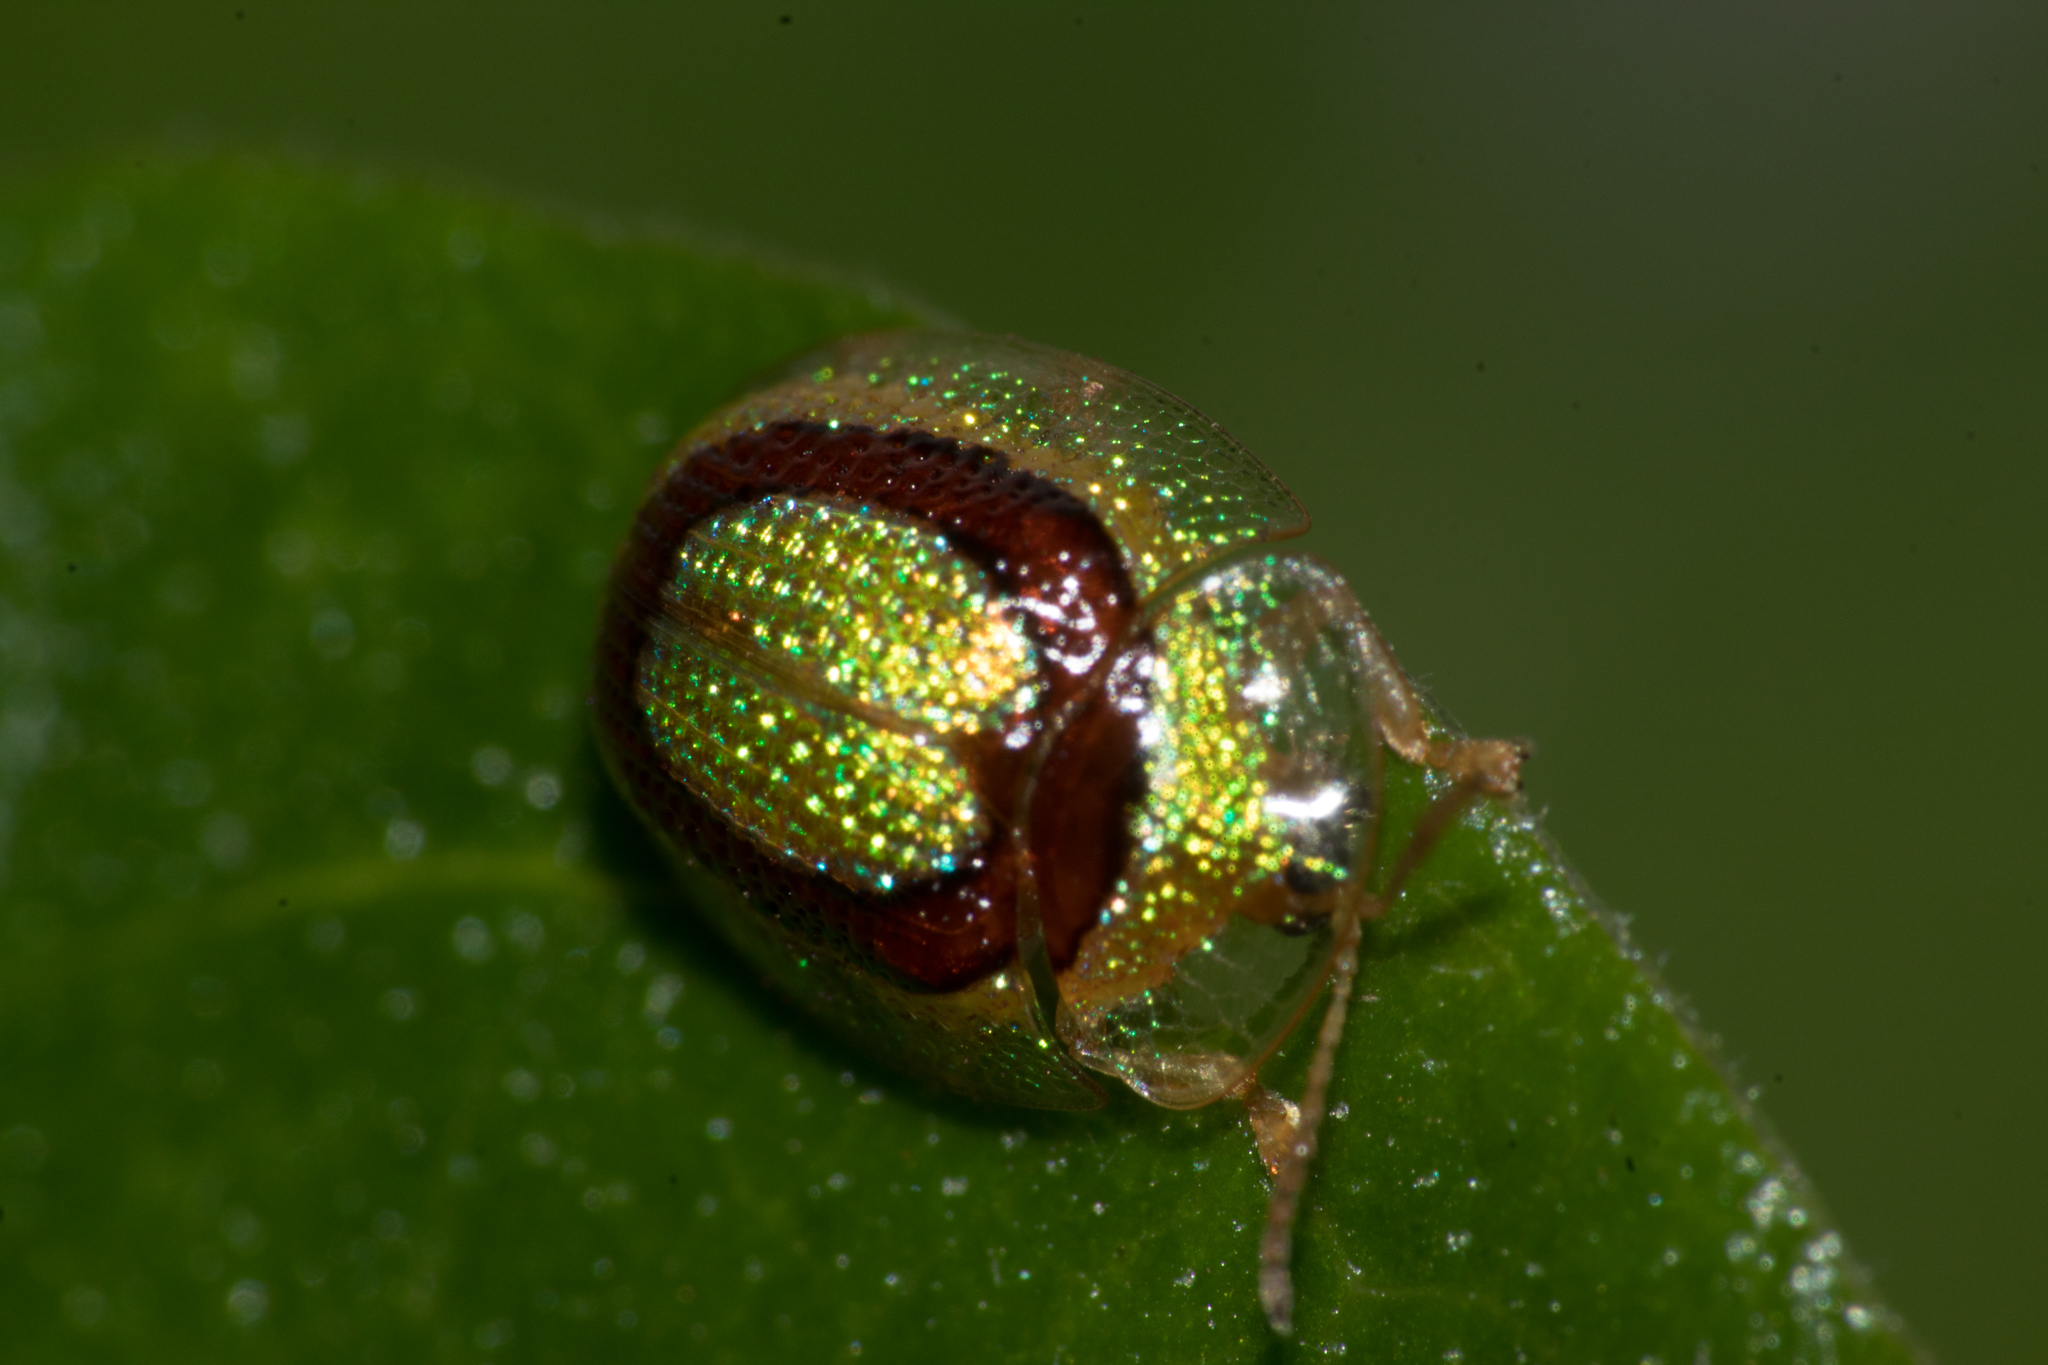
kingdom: Animalia
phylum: Arthropoda
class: Insecta
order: Coleoptera
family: Chrysomelidae
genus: Charidotis
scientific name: Charidotis abrupta
